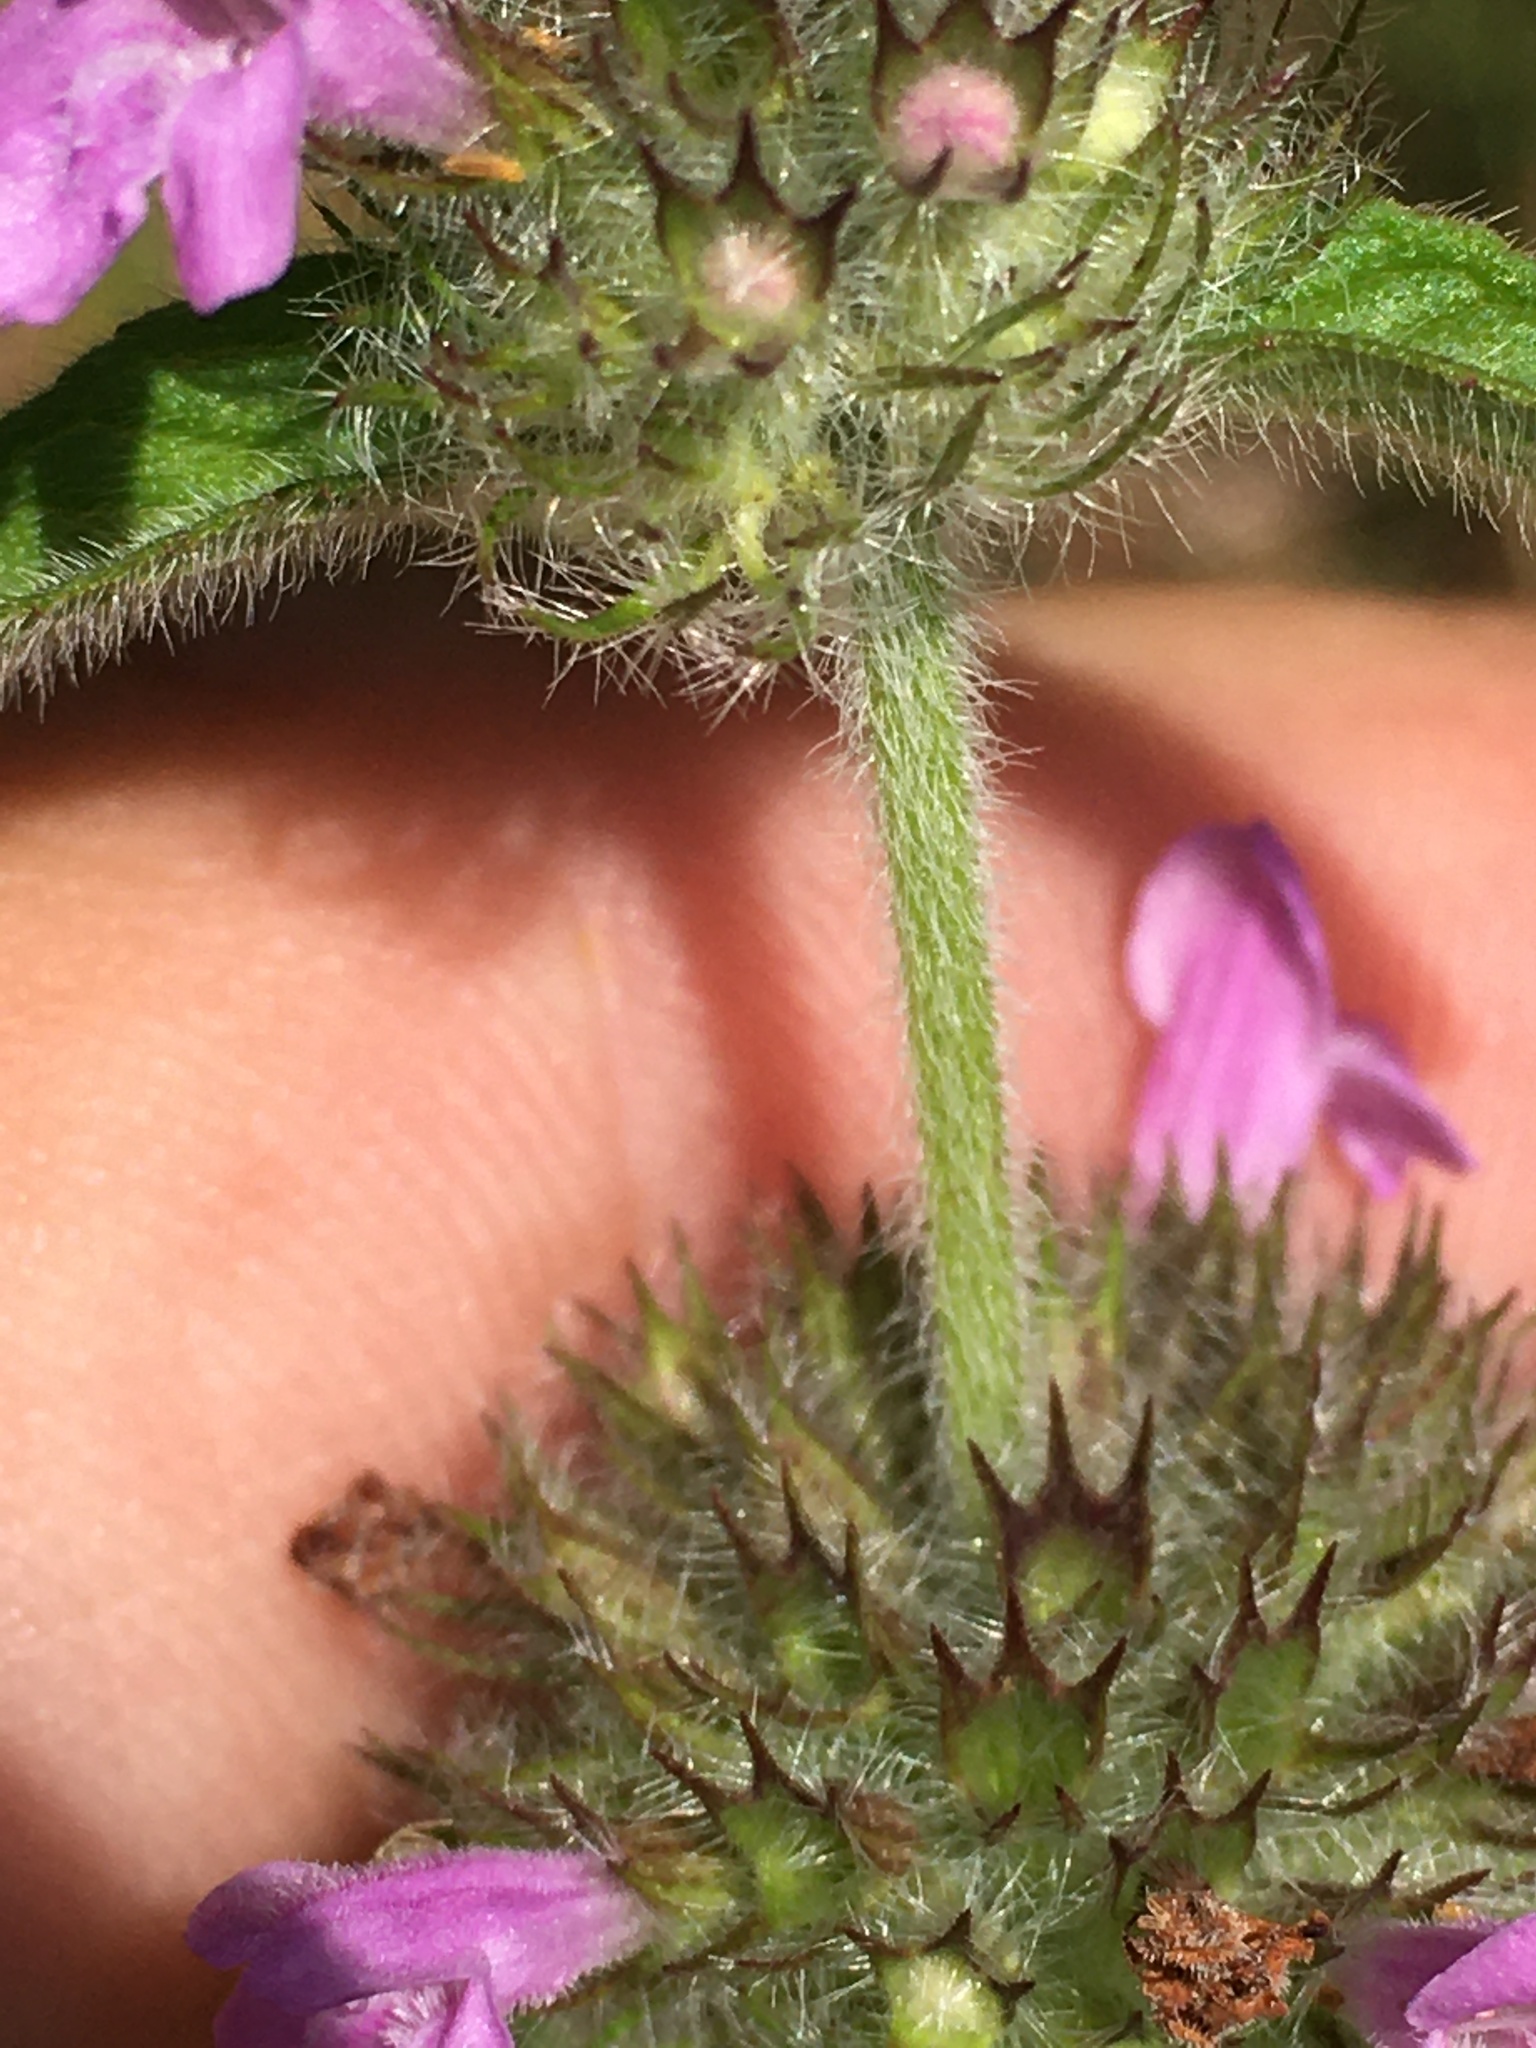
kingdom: Plantae
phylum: Tracheophyta
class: Magnoliopsida
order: Lamiales
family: Lamiaceae
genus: Clinopodium
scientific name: Clinopodium vulgare
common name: Wild basil
